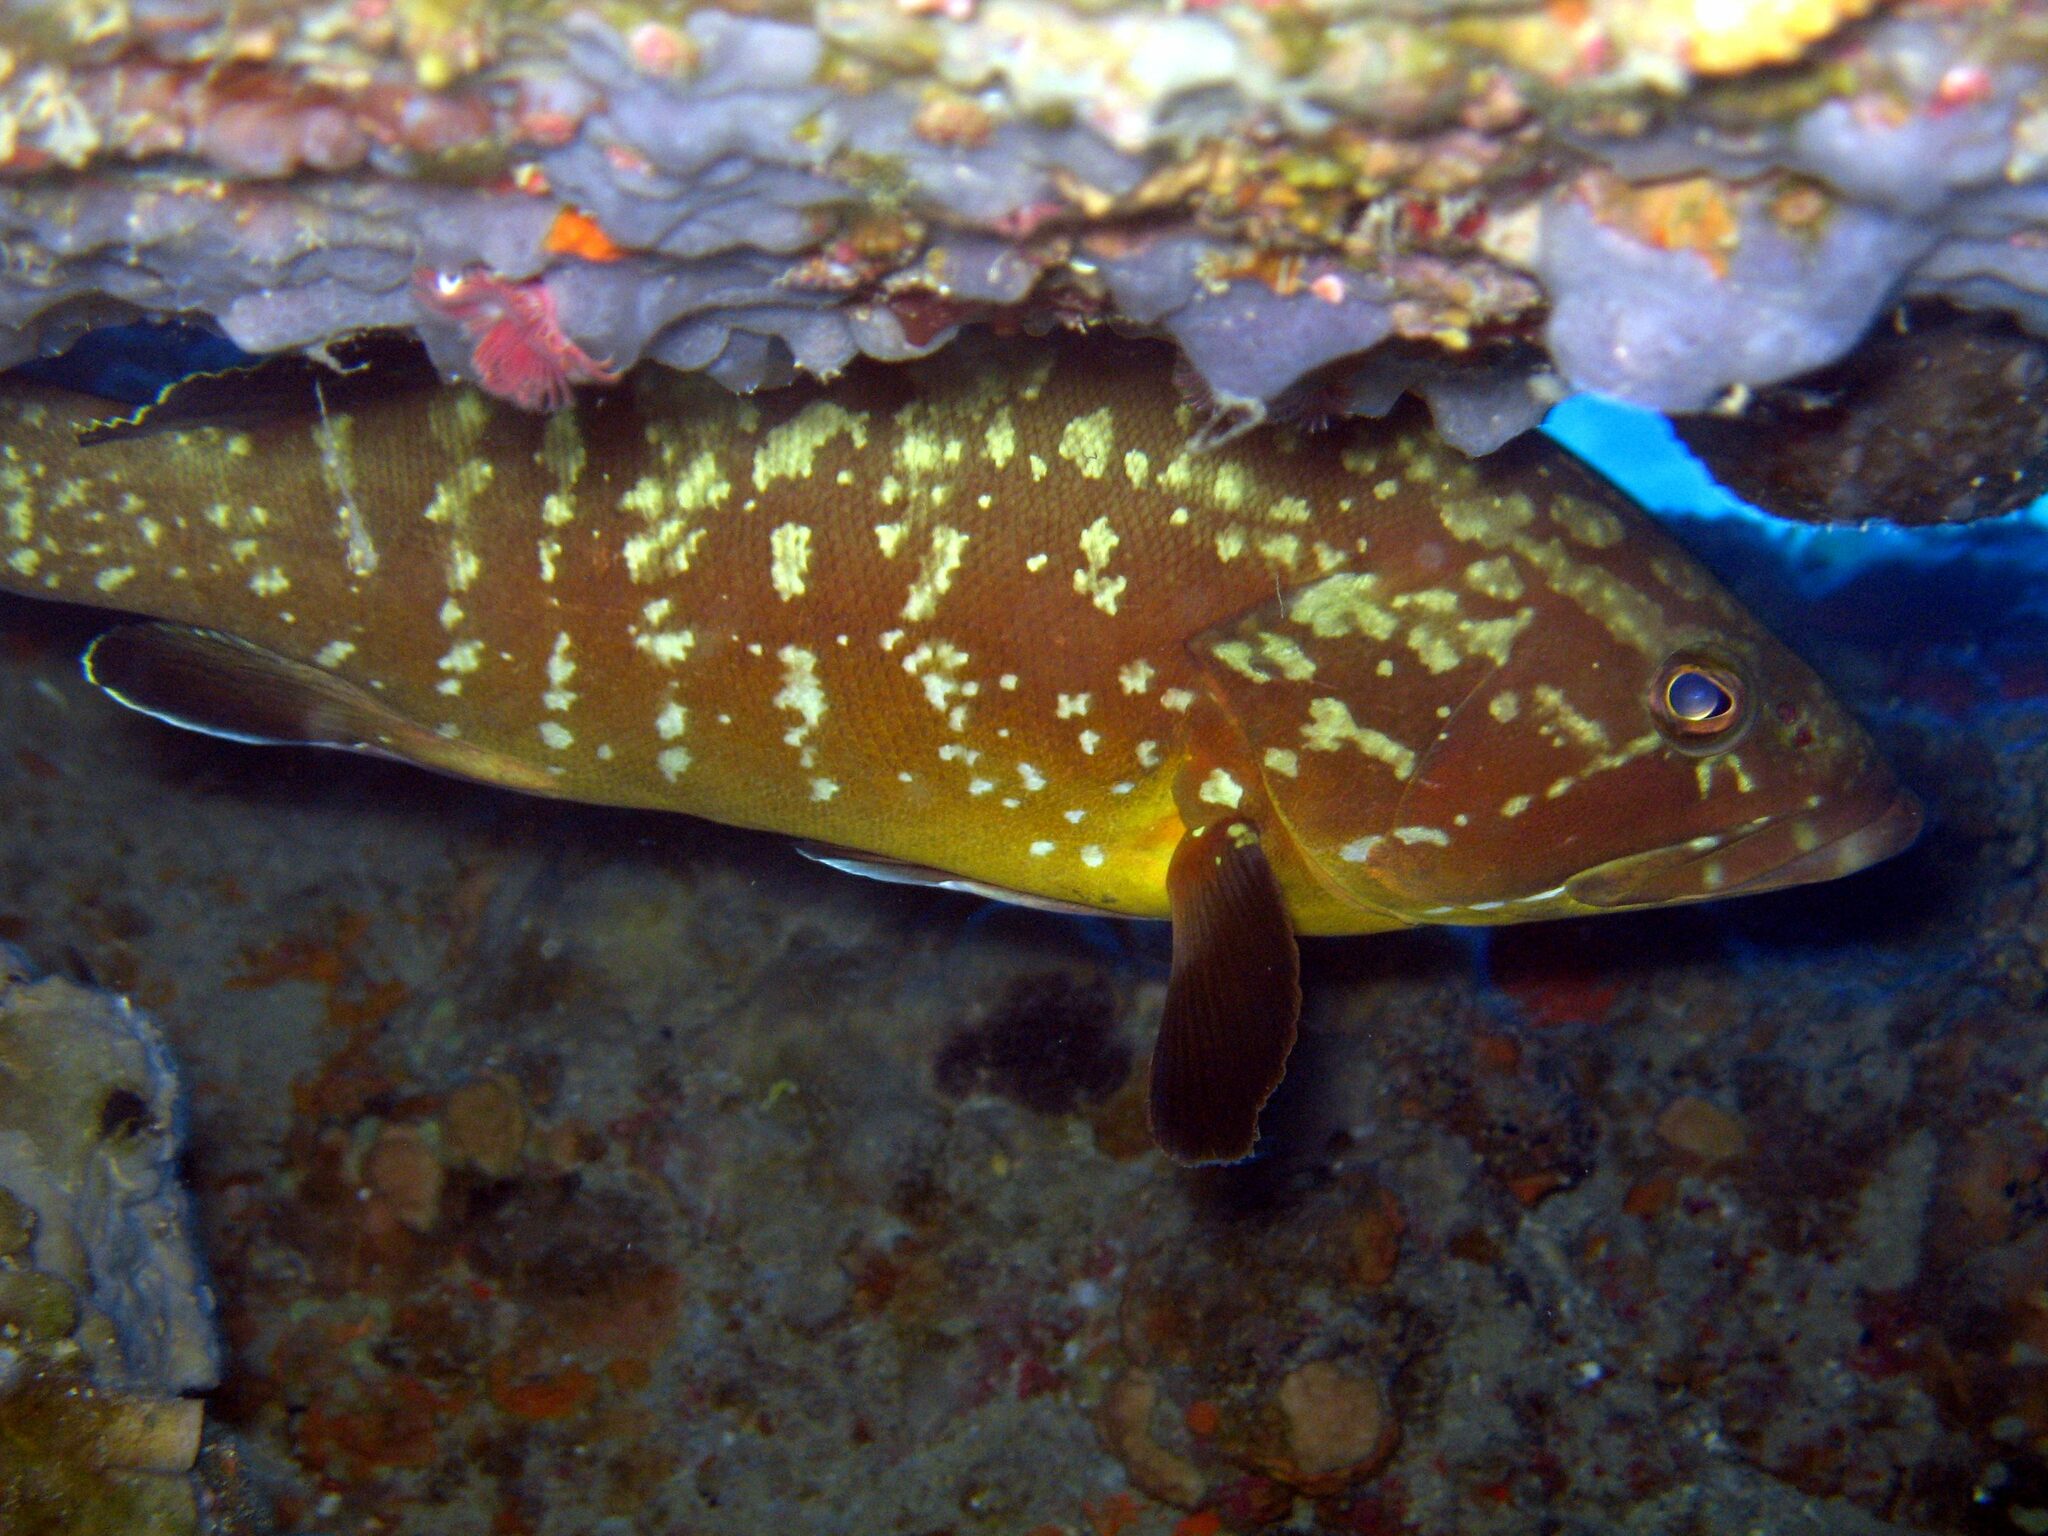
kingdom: Animalia
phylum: Chordata
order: Perciformes
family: Serranidae
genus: Epinephelus
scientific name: Epinephelus marginatus
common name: Dusky grouper
